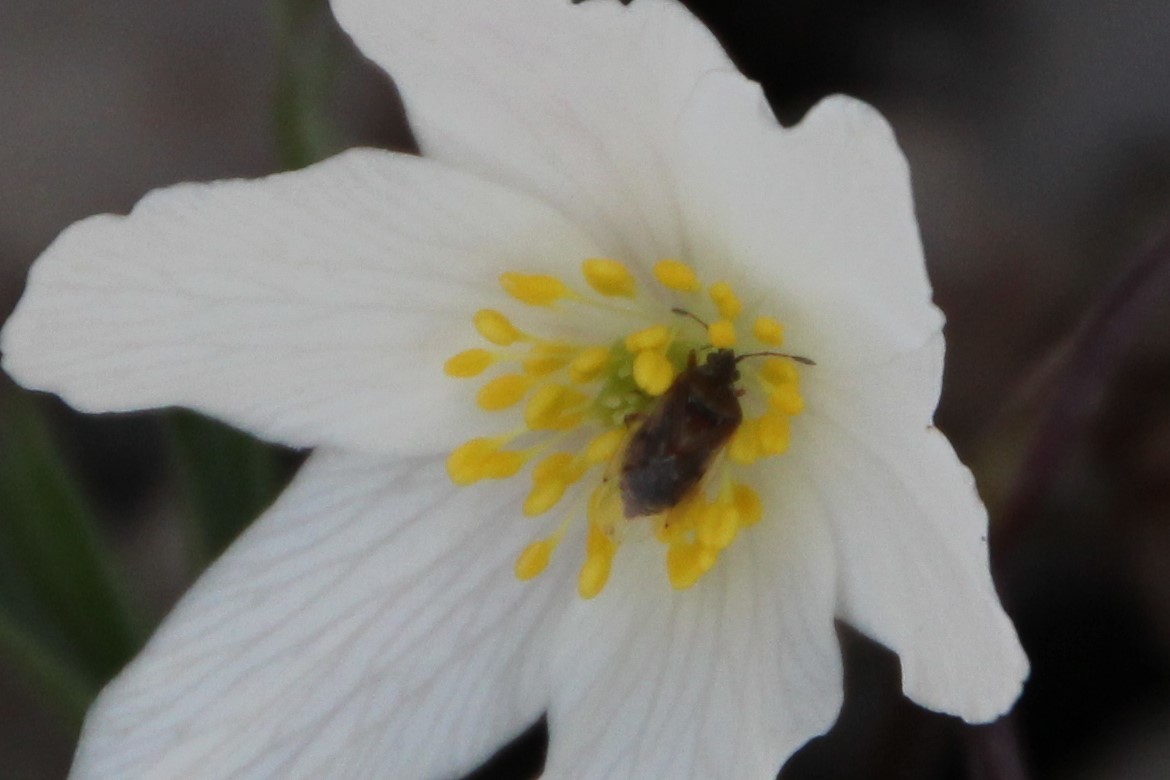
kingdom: Animalia
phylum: Arthropoda
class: Insecta
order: Hemiptera
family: Lygaeidae
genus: Kleidocerys
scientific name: Kleidocerys resedae
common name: Birch catkin bug
